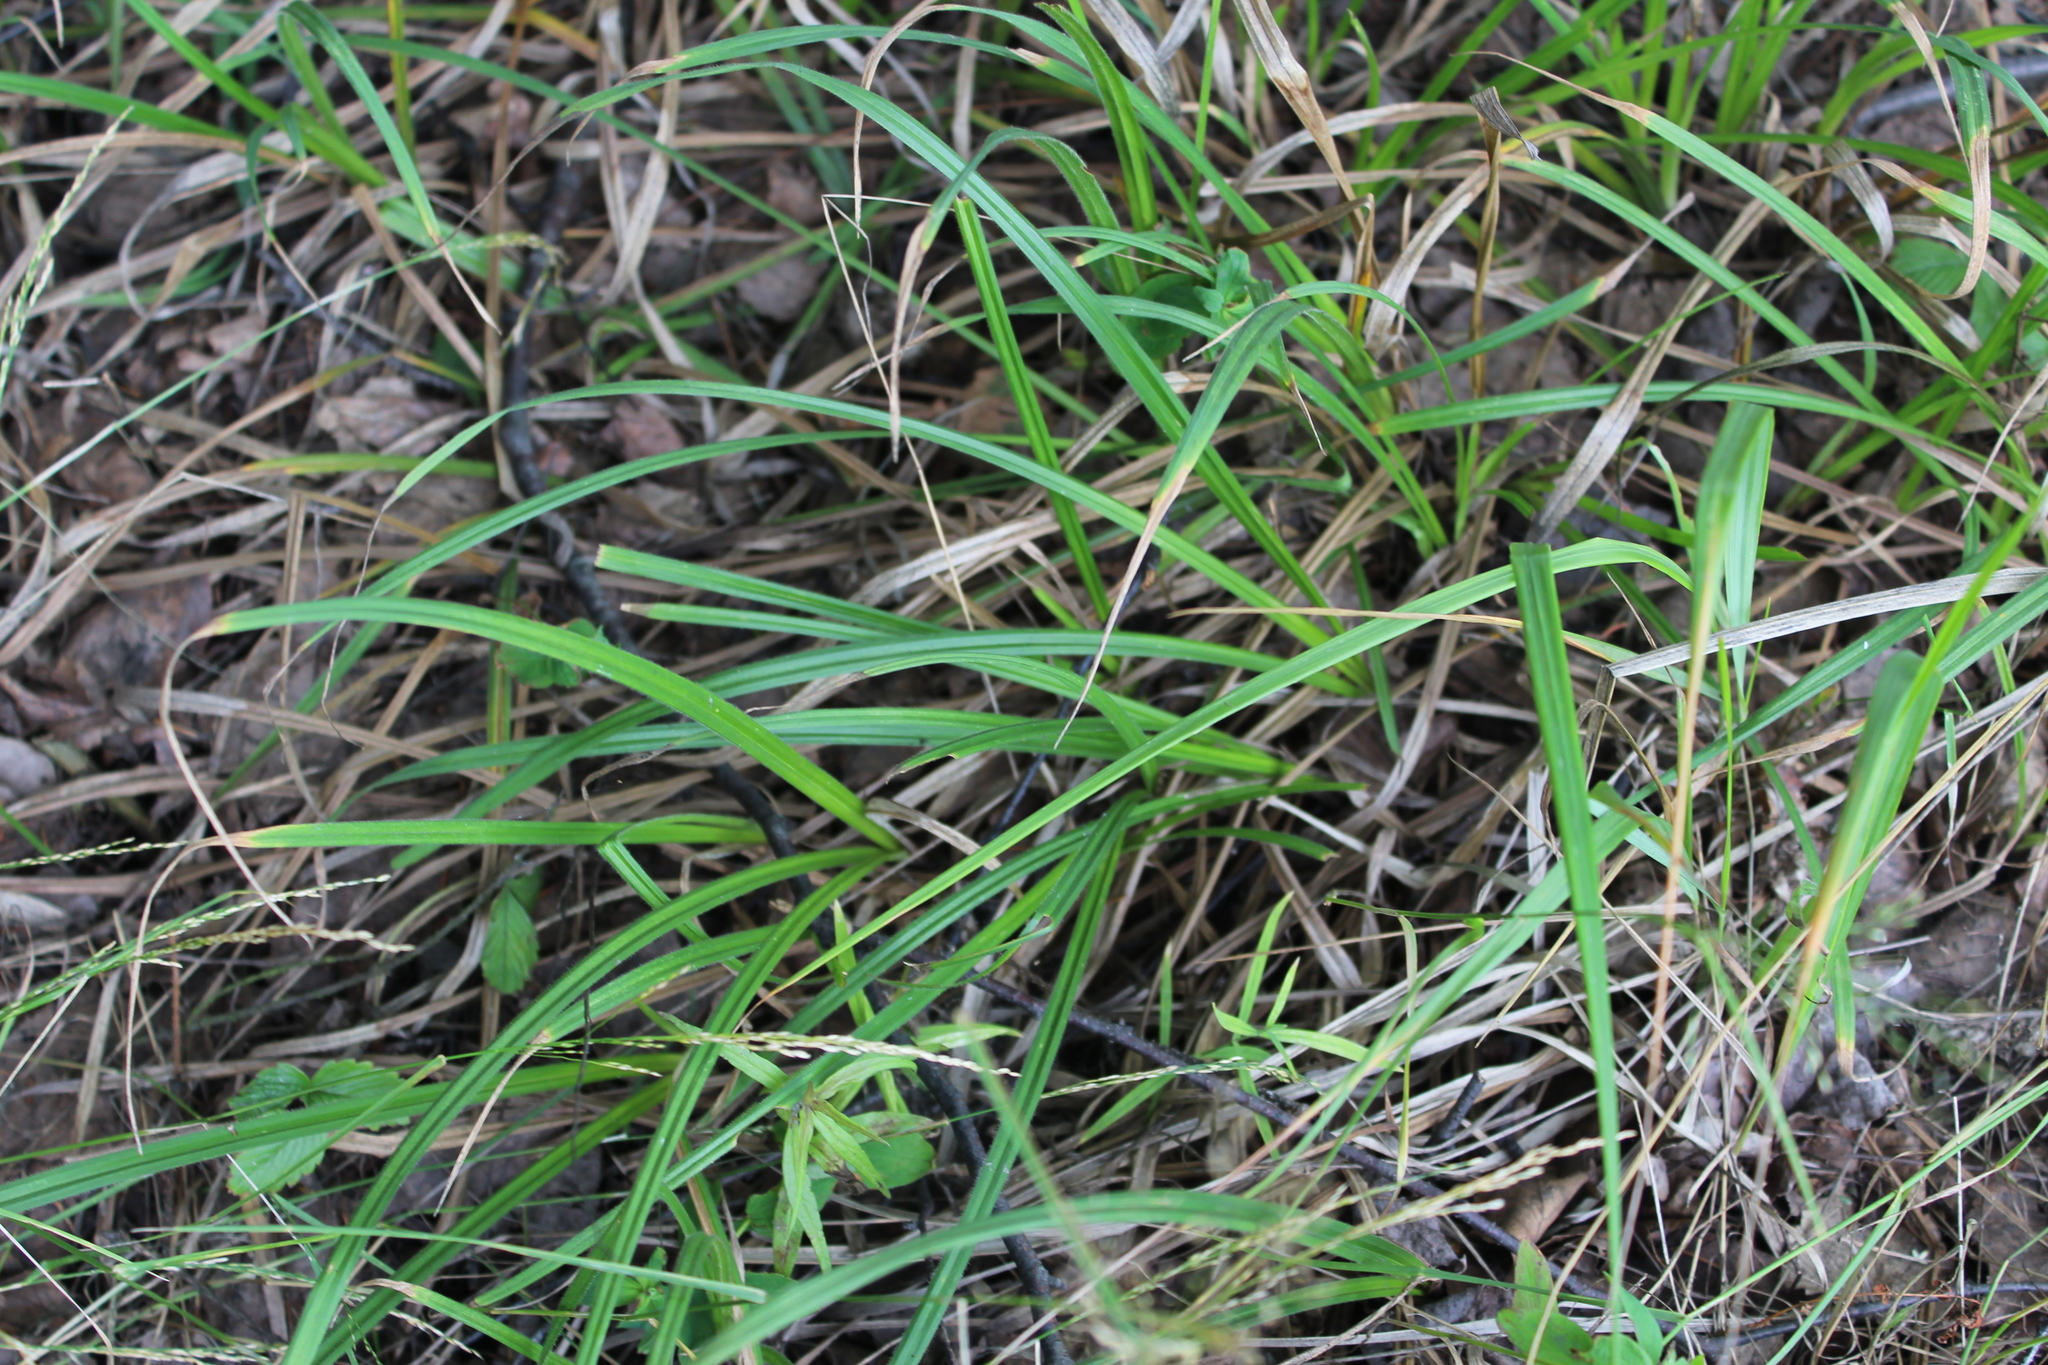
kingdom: Plantae
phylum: Tracheophyta
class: Liliopsida
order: Poales
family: Cyperaceae
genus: Carex
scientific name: Carex pilosa
